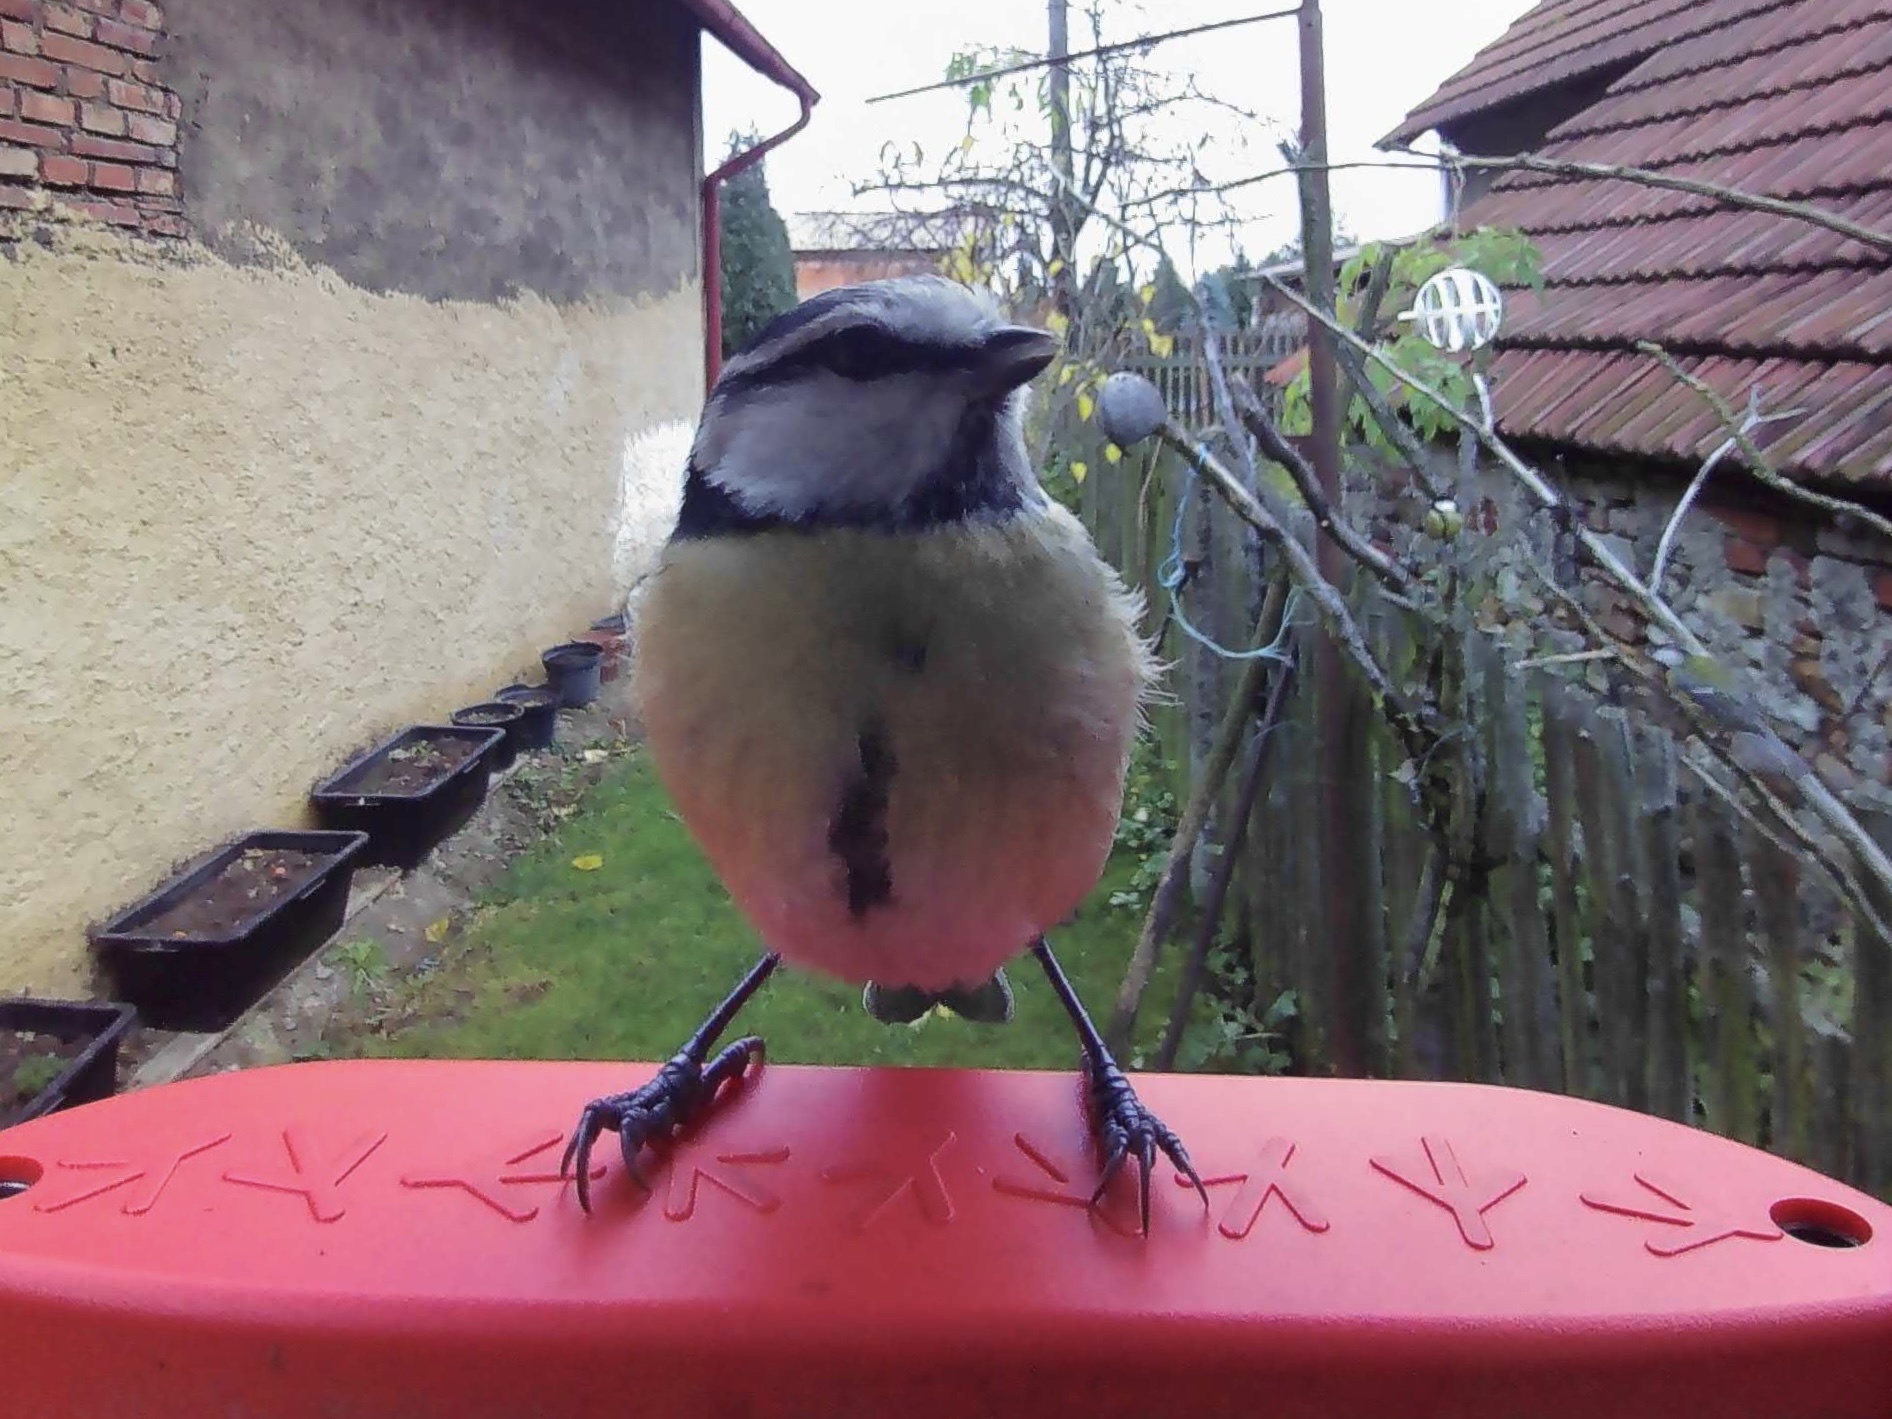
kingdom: Animalia
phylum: Chordata
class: Aves
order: Passeriformes
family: Paridae
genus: Cyanistes
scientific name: Cyanistes caeruleus
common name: Eurasian blue tit
